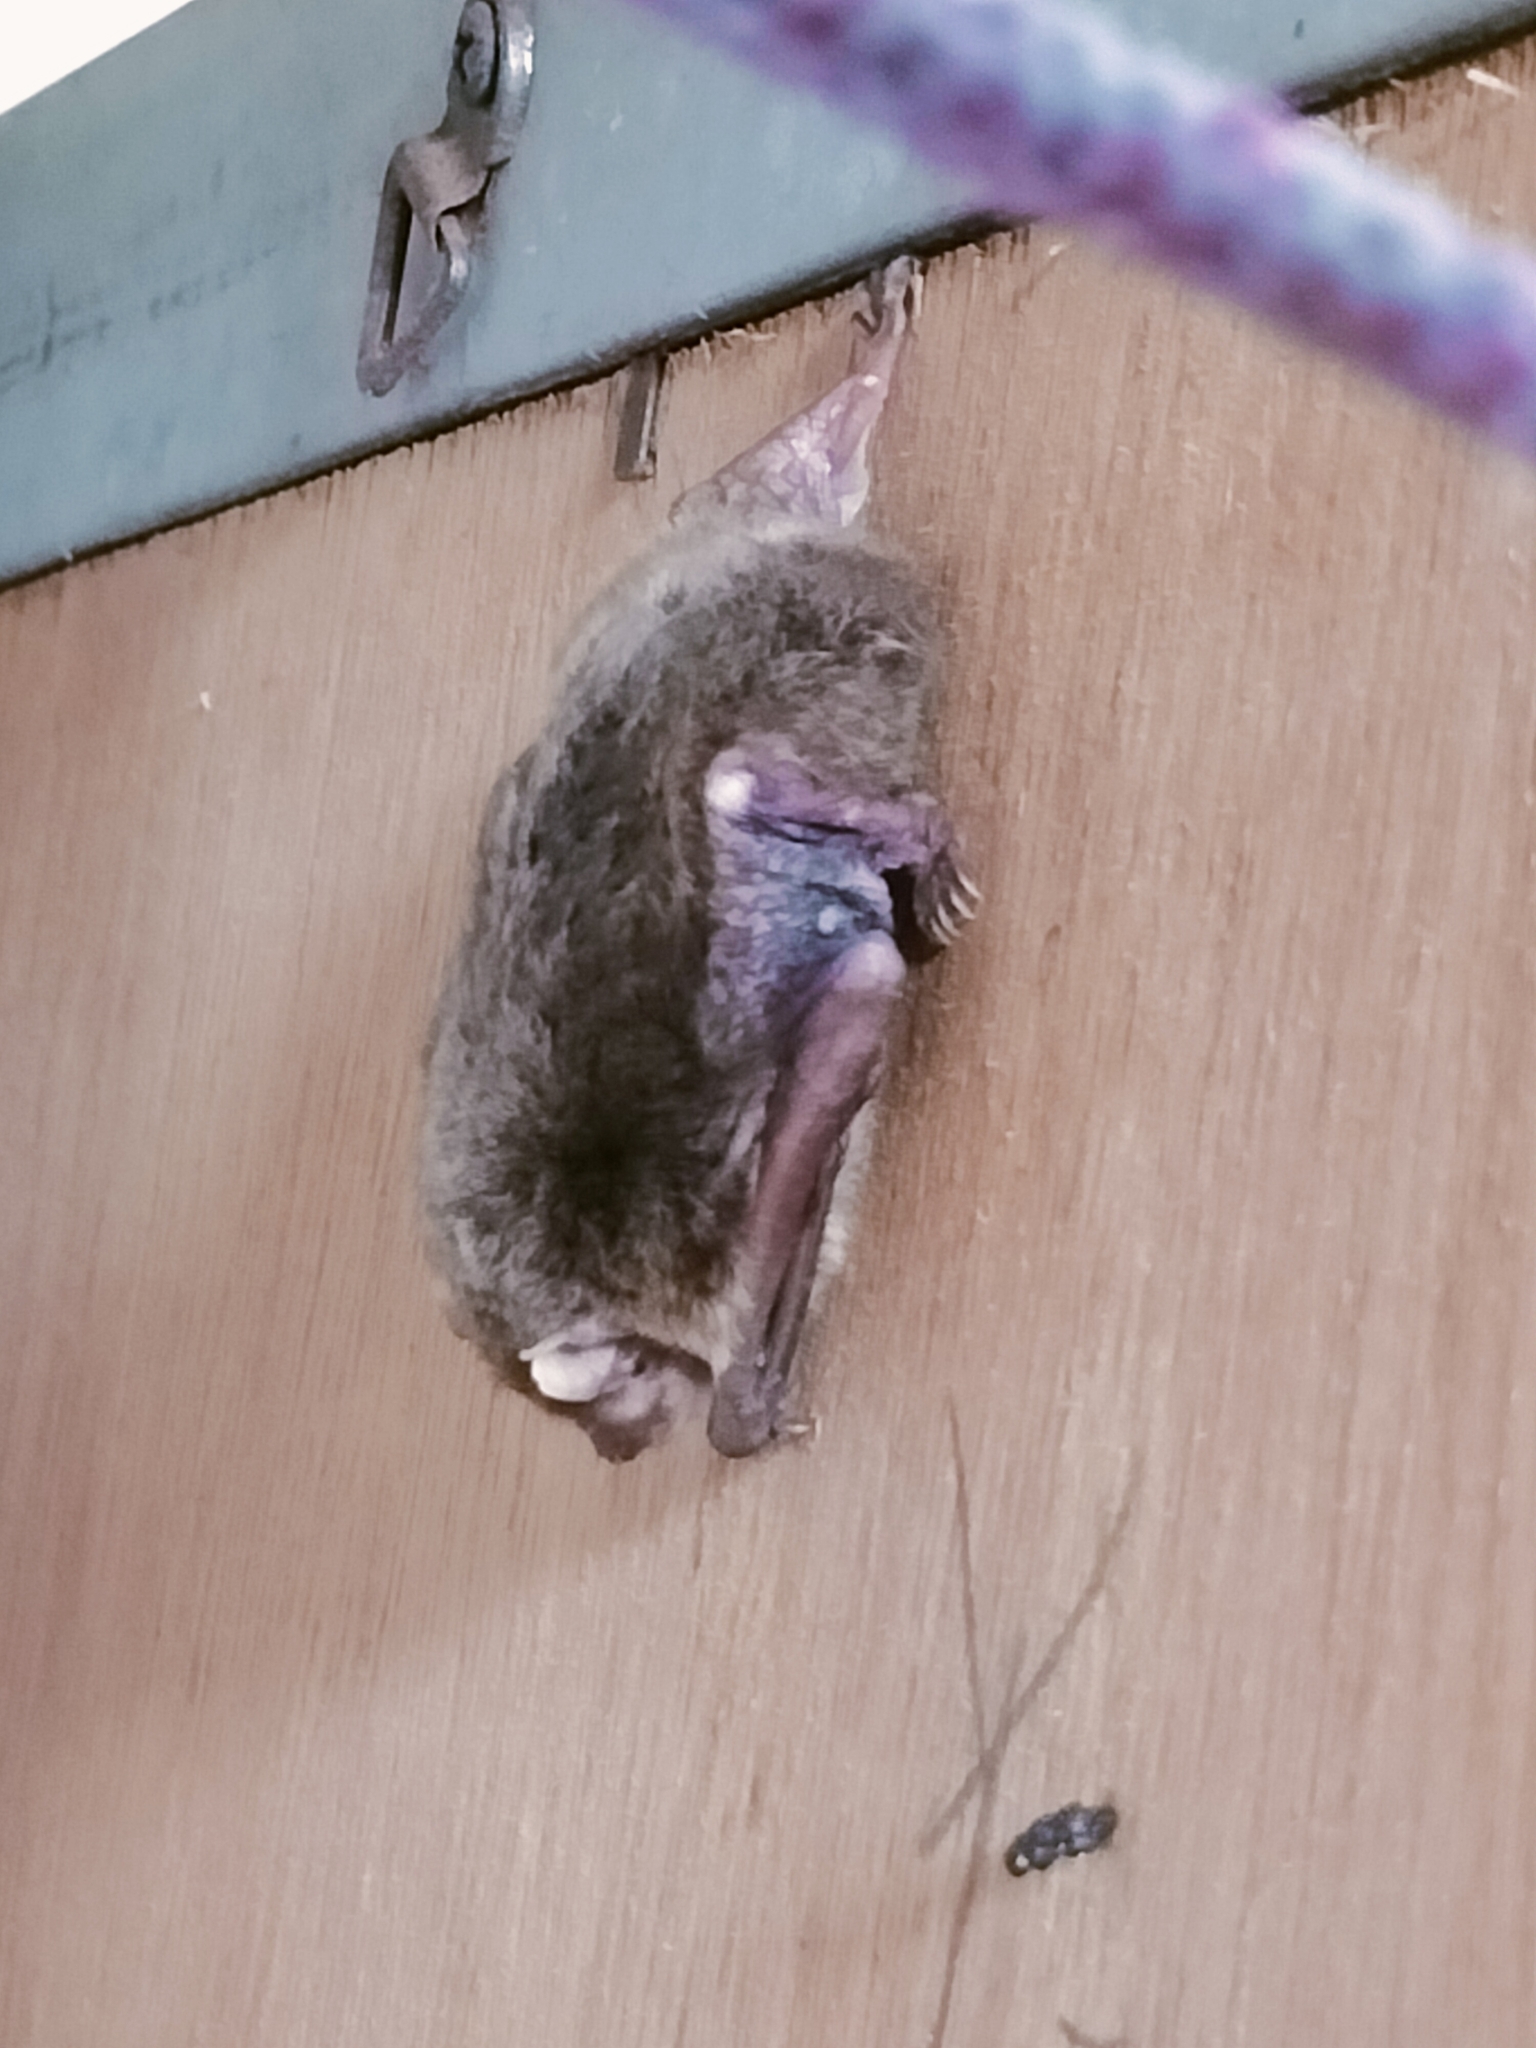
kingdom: Animalia
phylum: Chordata
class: Mammalia
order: Chiroptera
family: Vespertilionidae
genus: Pipistrellus
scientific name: Pipistrellus abramus
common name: Japanese pipistrelle
